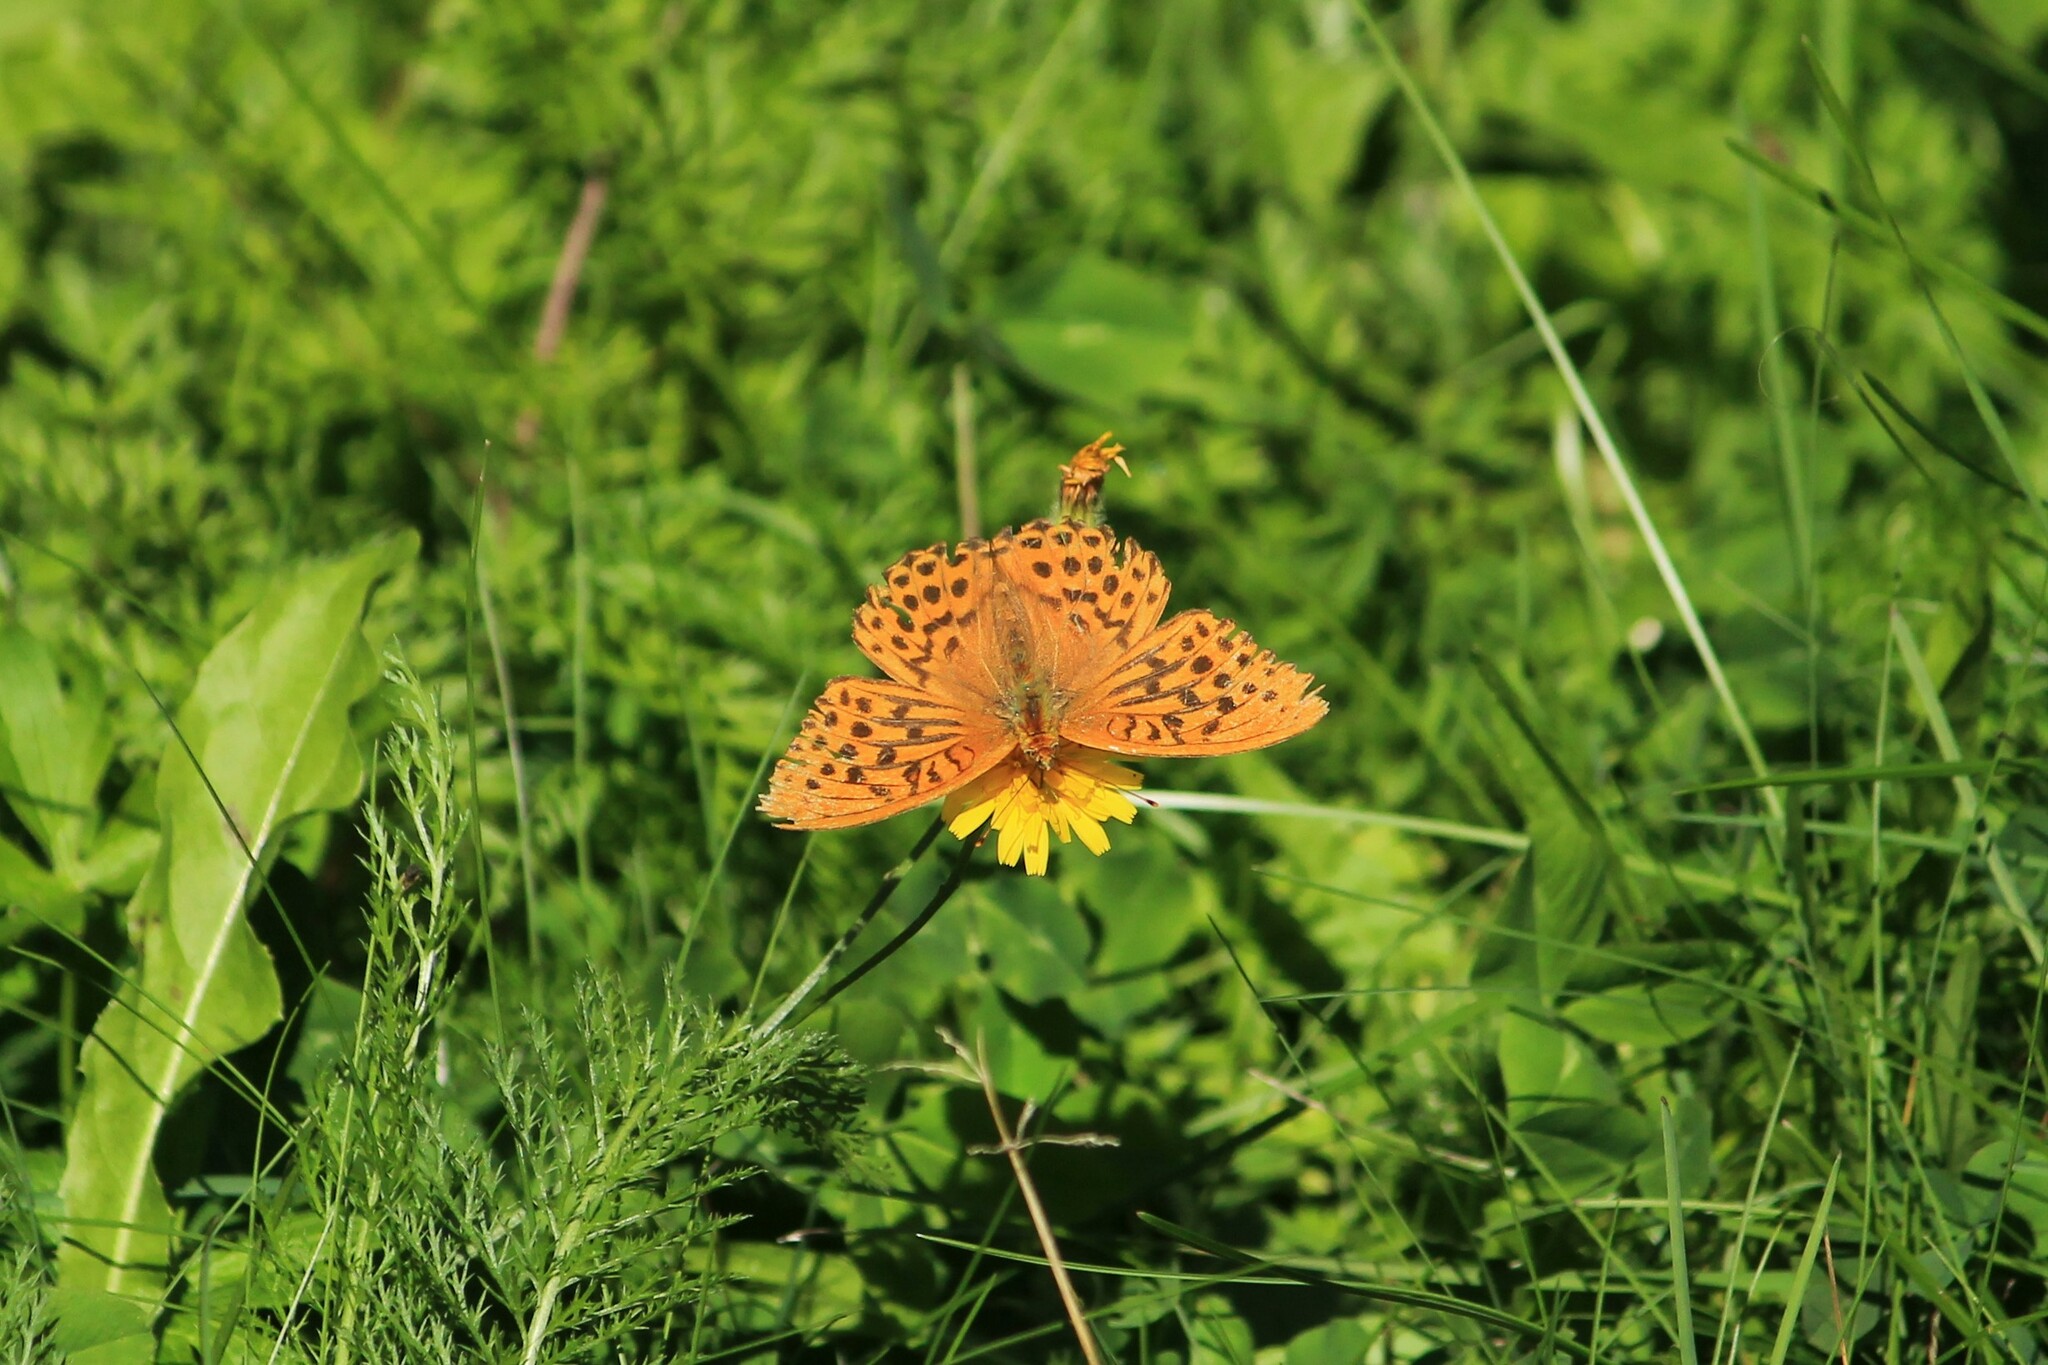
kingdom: Animalia
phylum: Arthropoda
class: Insecta
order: Lepidoptera
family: Nymphalidae
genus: Argynnis
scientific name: Argynnis paphia
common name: Silver-washed fritillary
